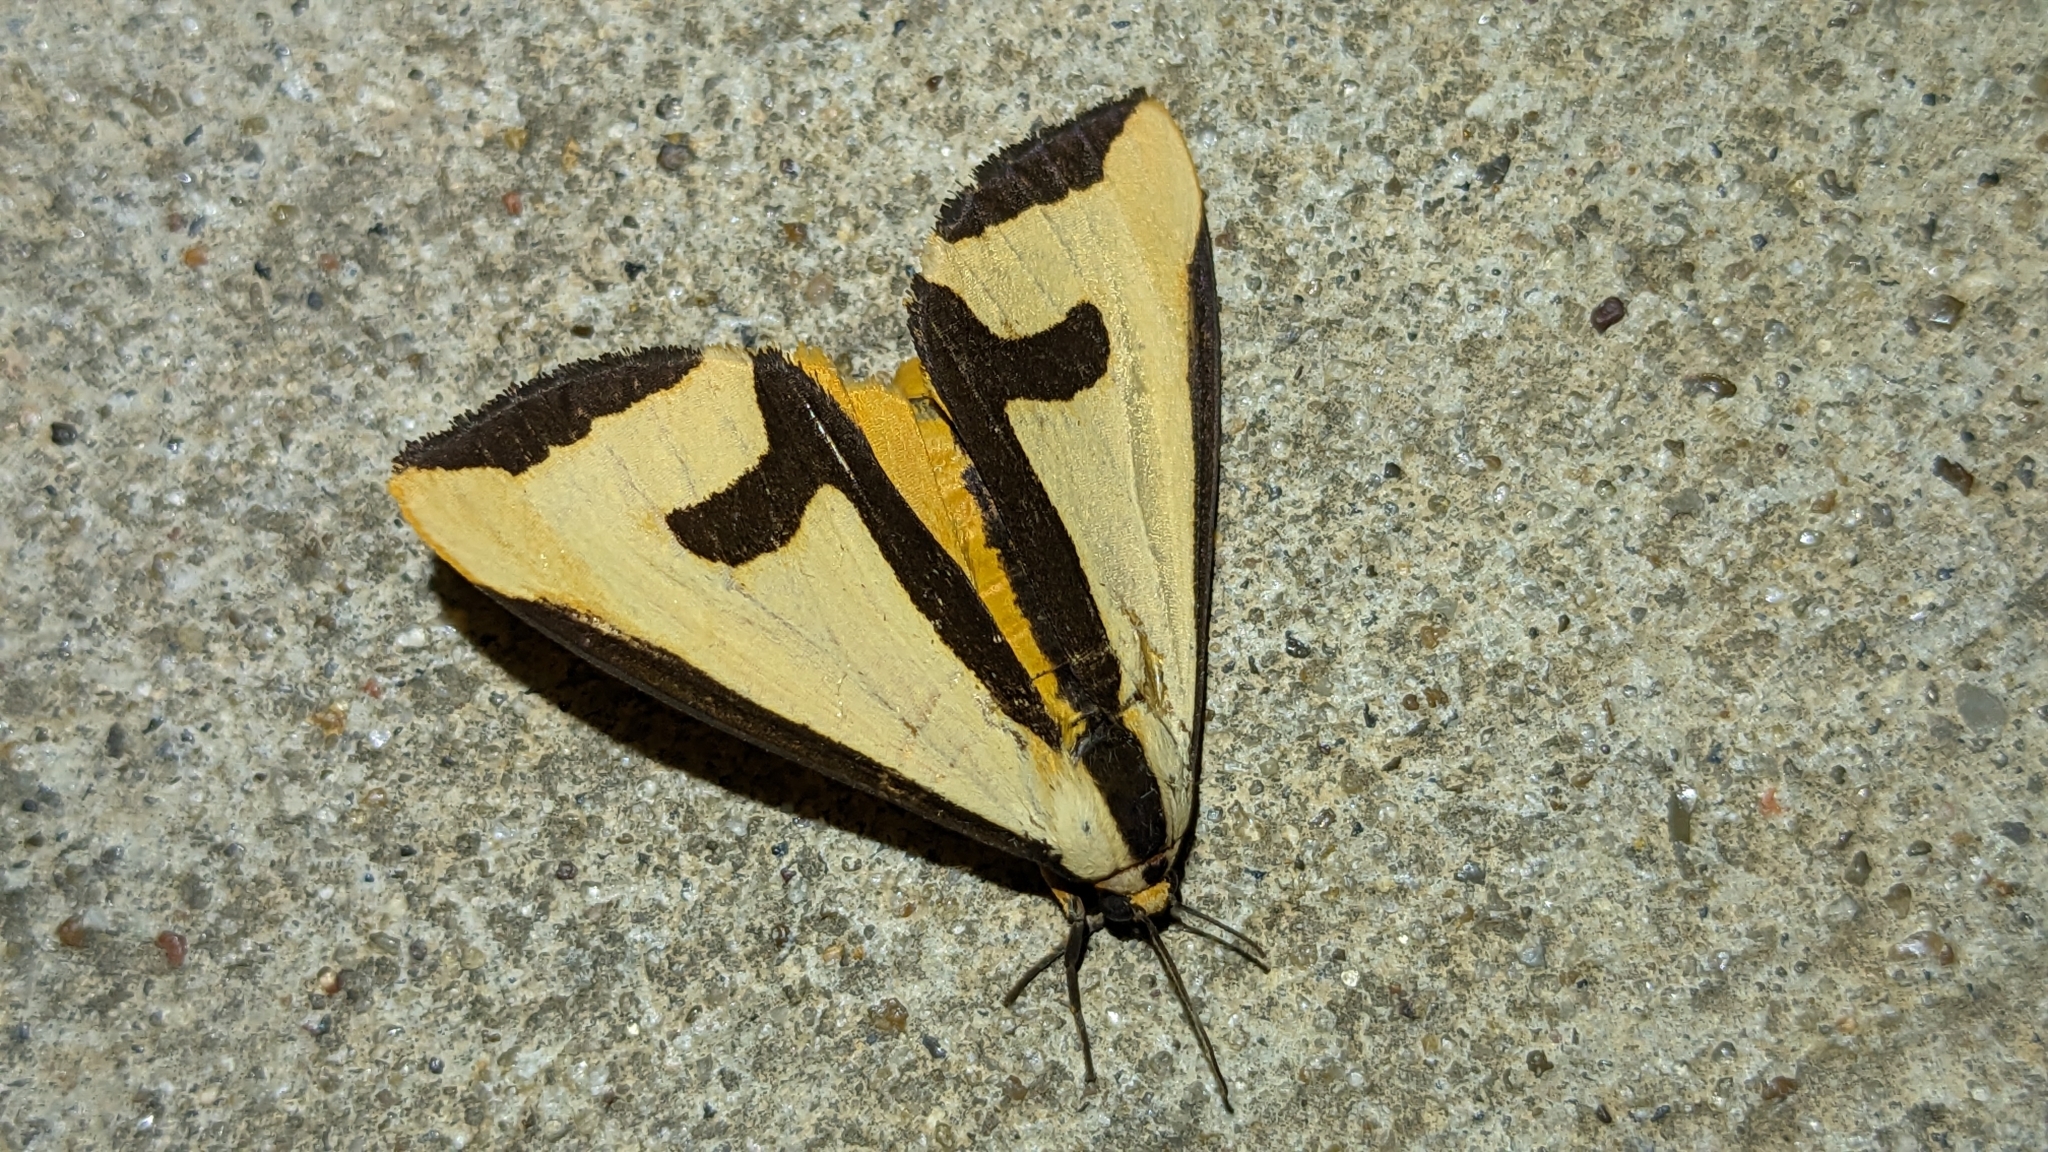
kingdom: Animalia
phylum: Arthropoda
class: Insecta
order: Lepidoptera
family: Erebidae
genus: Haploa
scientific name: Haploa clymene
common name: Clymene moth
